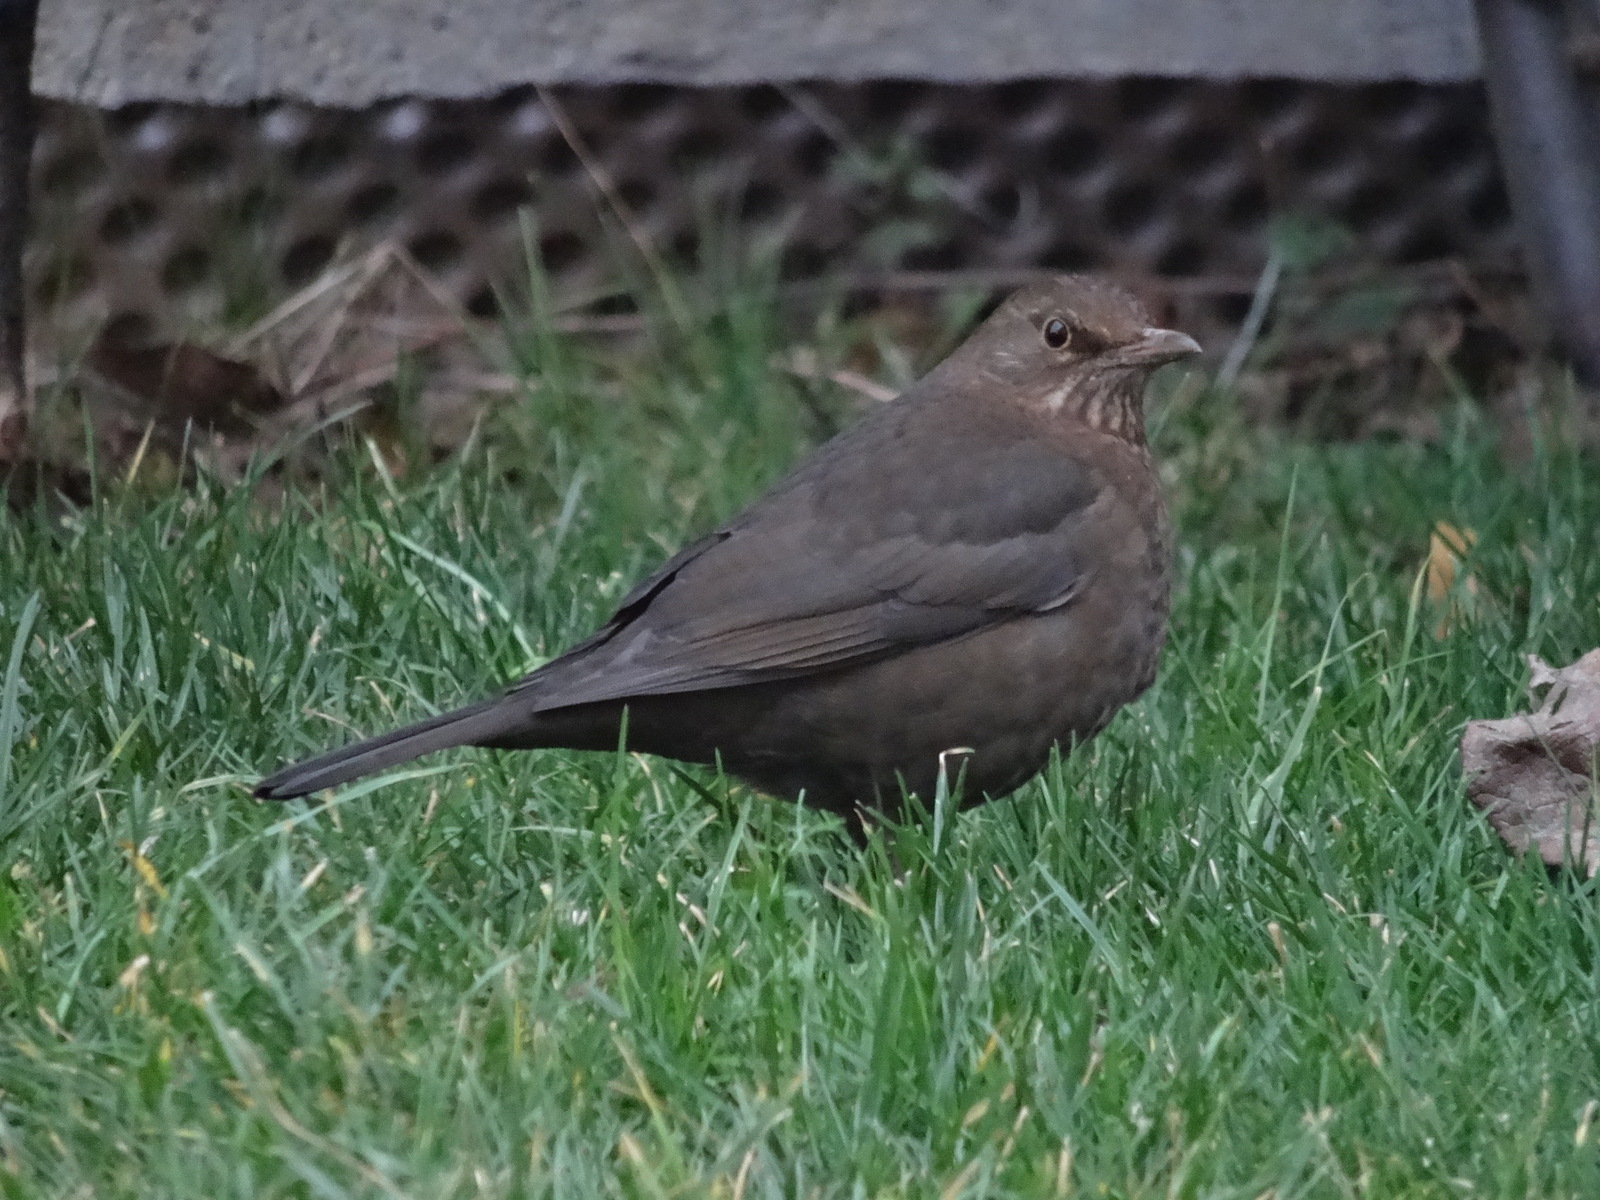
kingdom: Animalia
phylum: Chordata
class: Aves
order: Passeriformes
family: Turdidae
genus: Turdus
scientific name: Turdus merula
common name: Common blackbird
